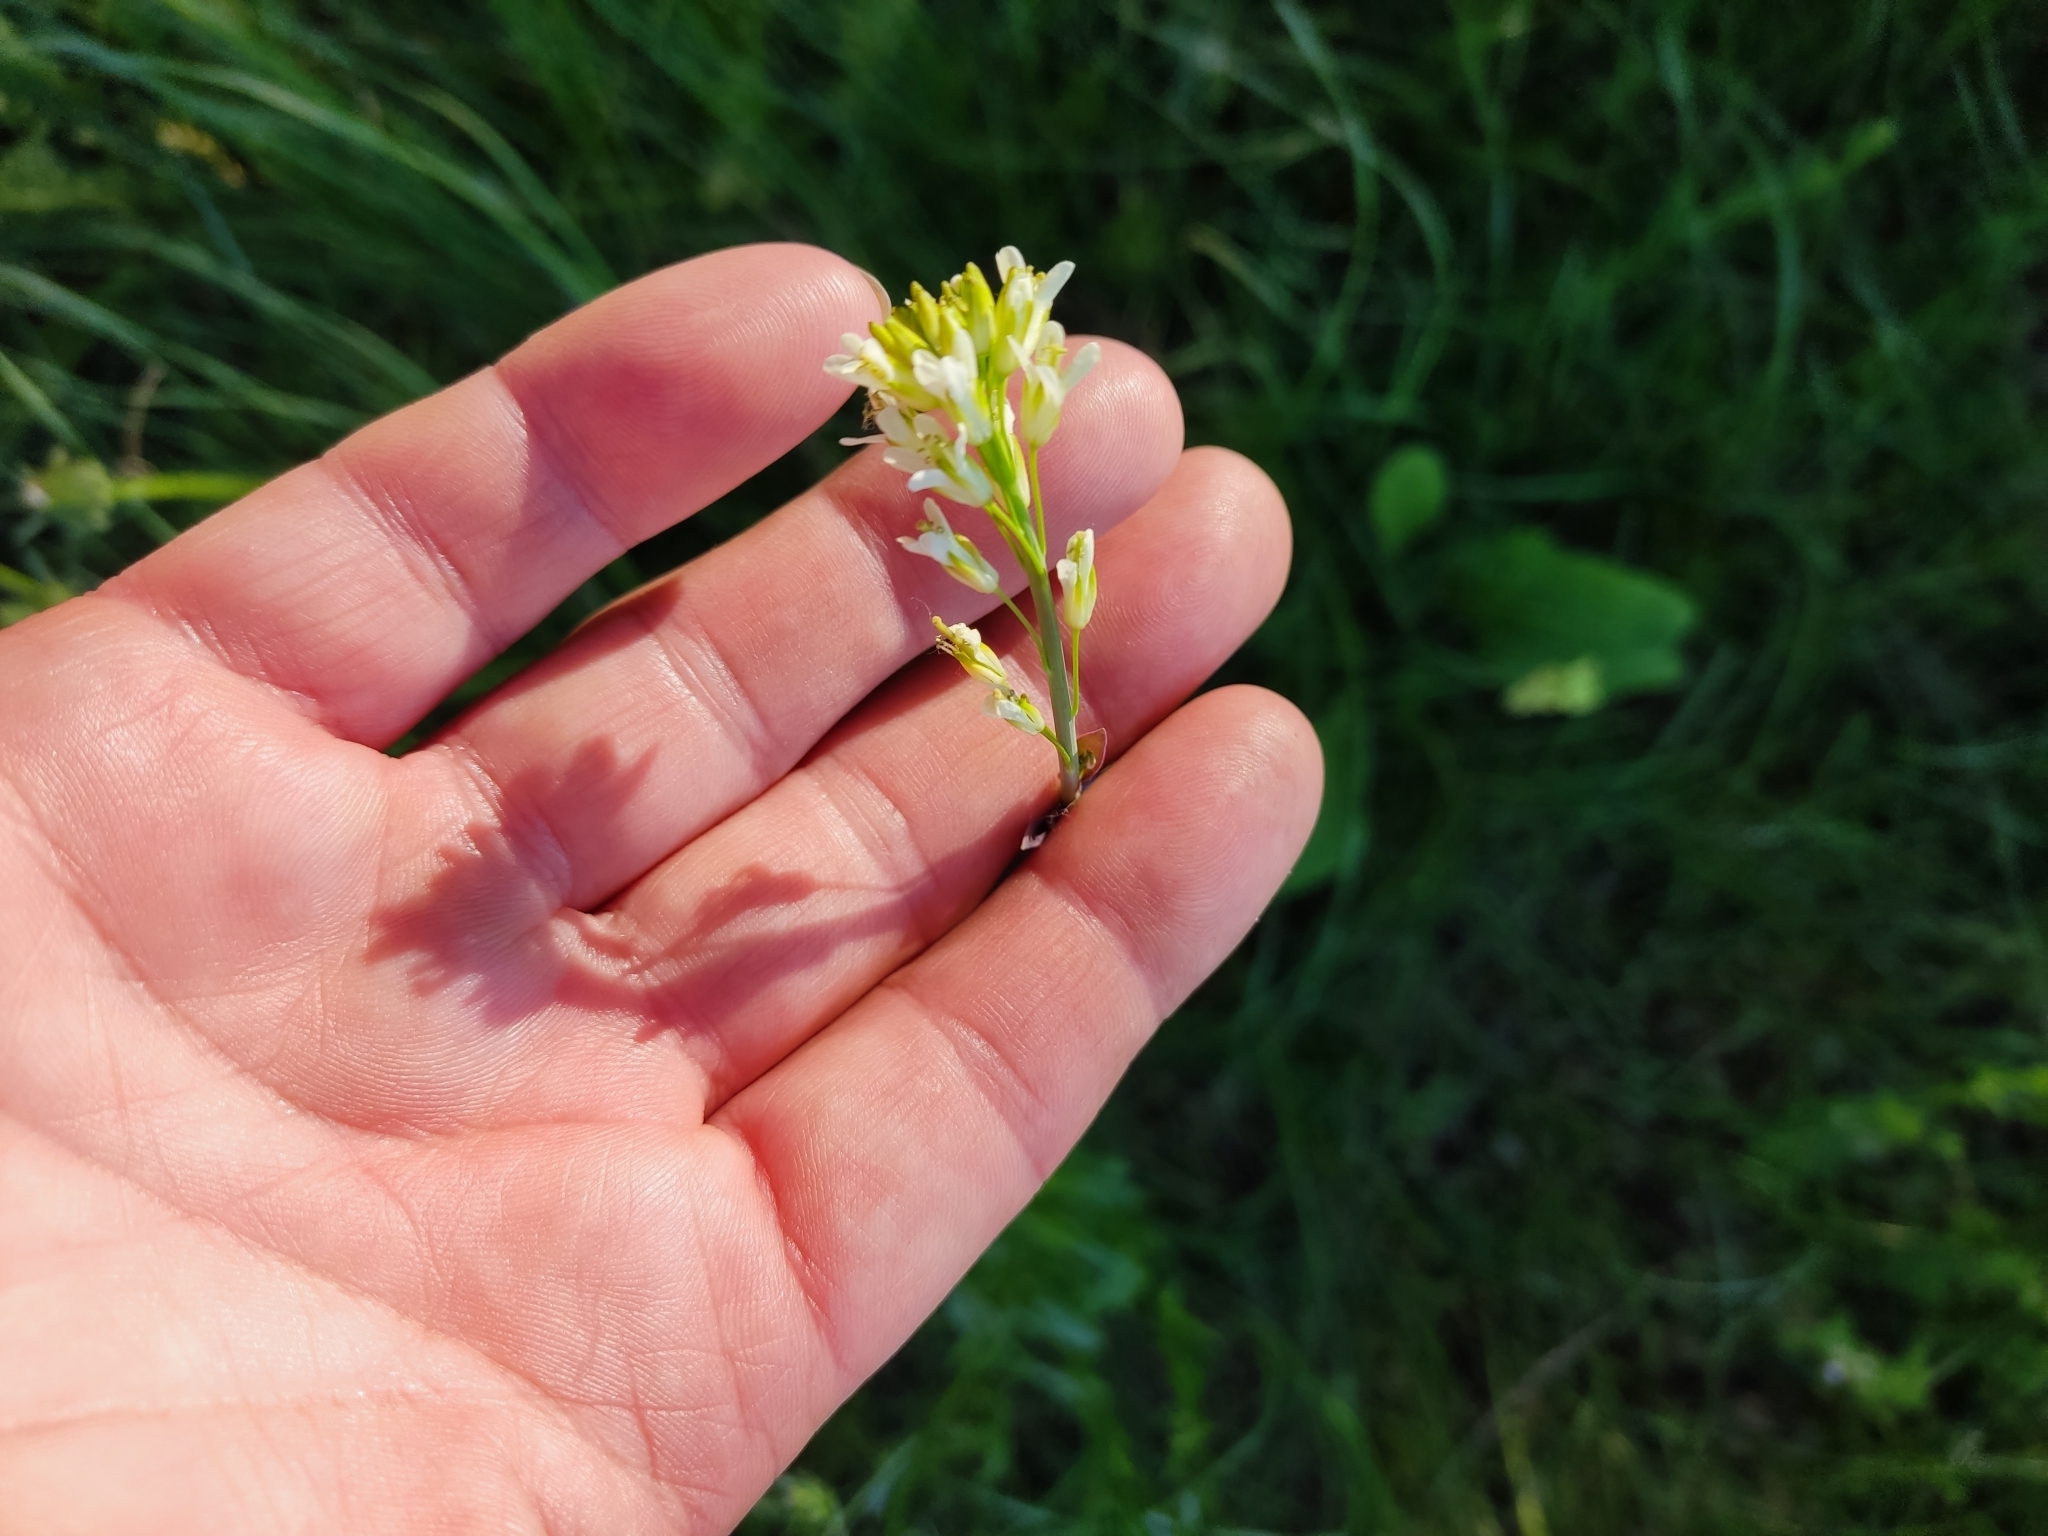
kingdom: Plantae
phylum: Tracheophyta
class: Magnoliopsida
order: Brassicales
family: Brassicaceae
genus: Turritis
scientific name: Turritis glabra
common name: Tower rockcress
